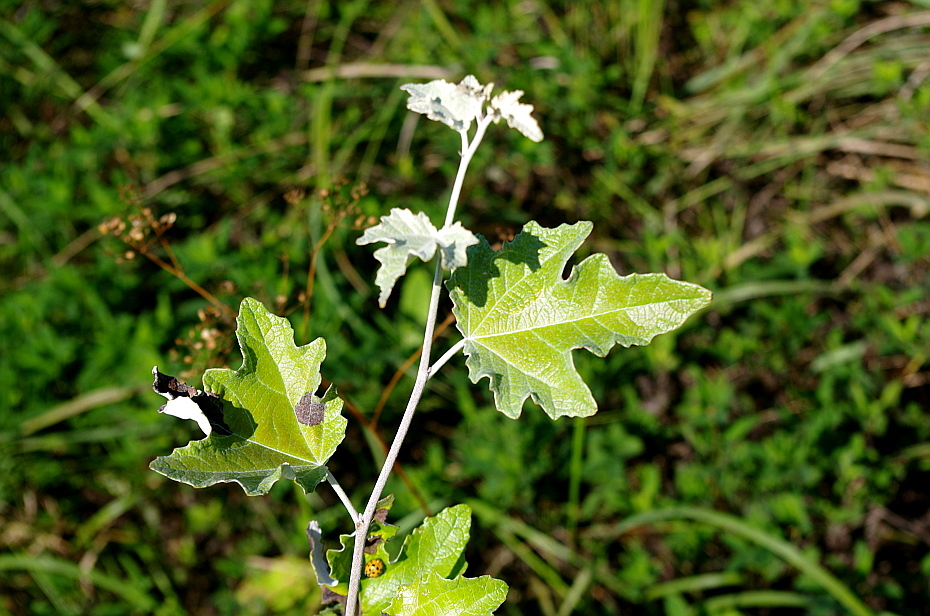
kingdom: Plantae
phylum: Tracheophyta
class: Magnoliopsida
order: Malpighiales
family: Salicaceae
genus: Populus
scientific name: Populus alba
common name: White poplar
